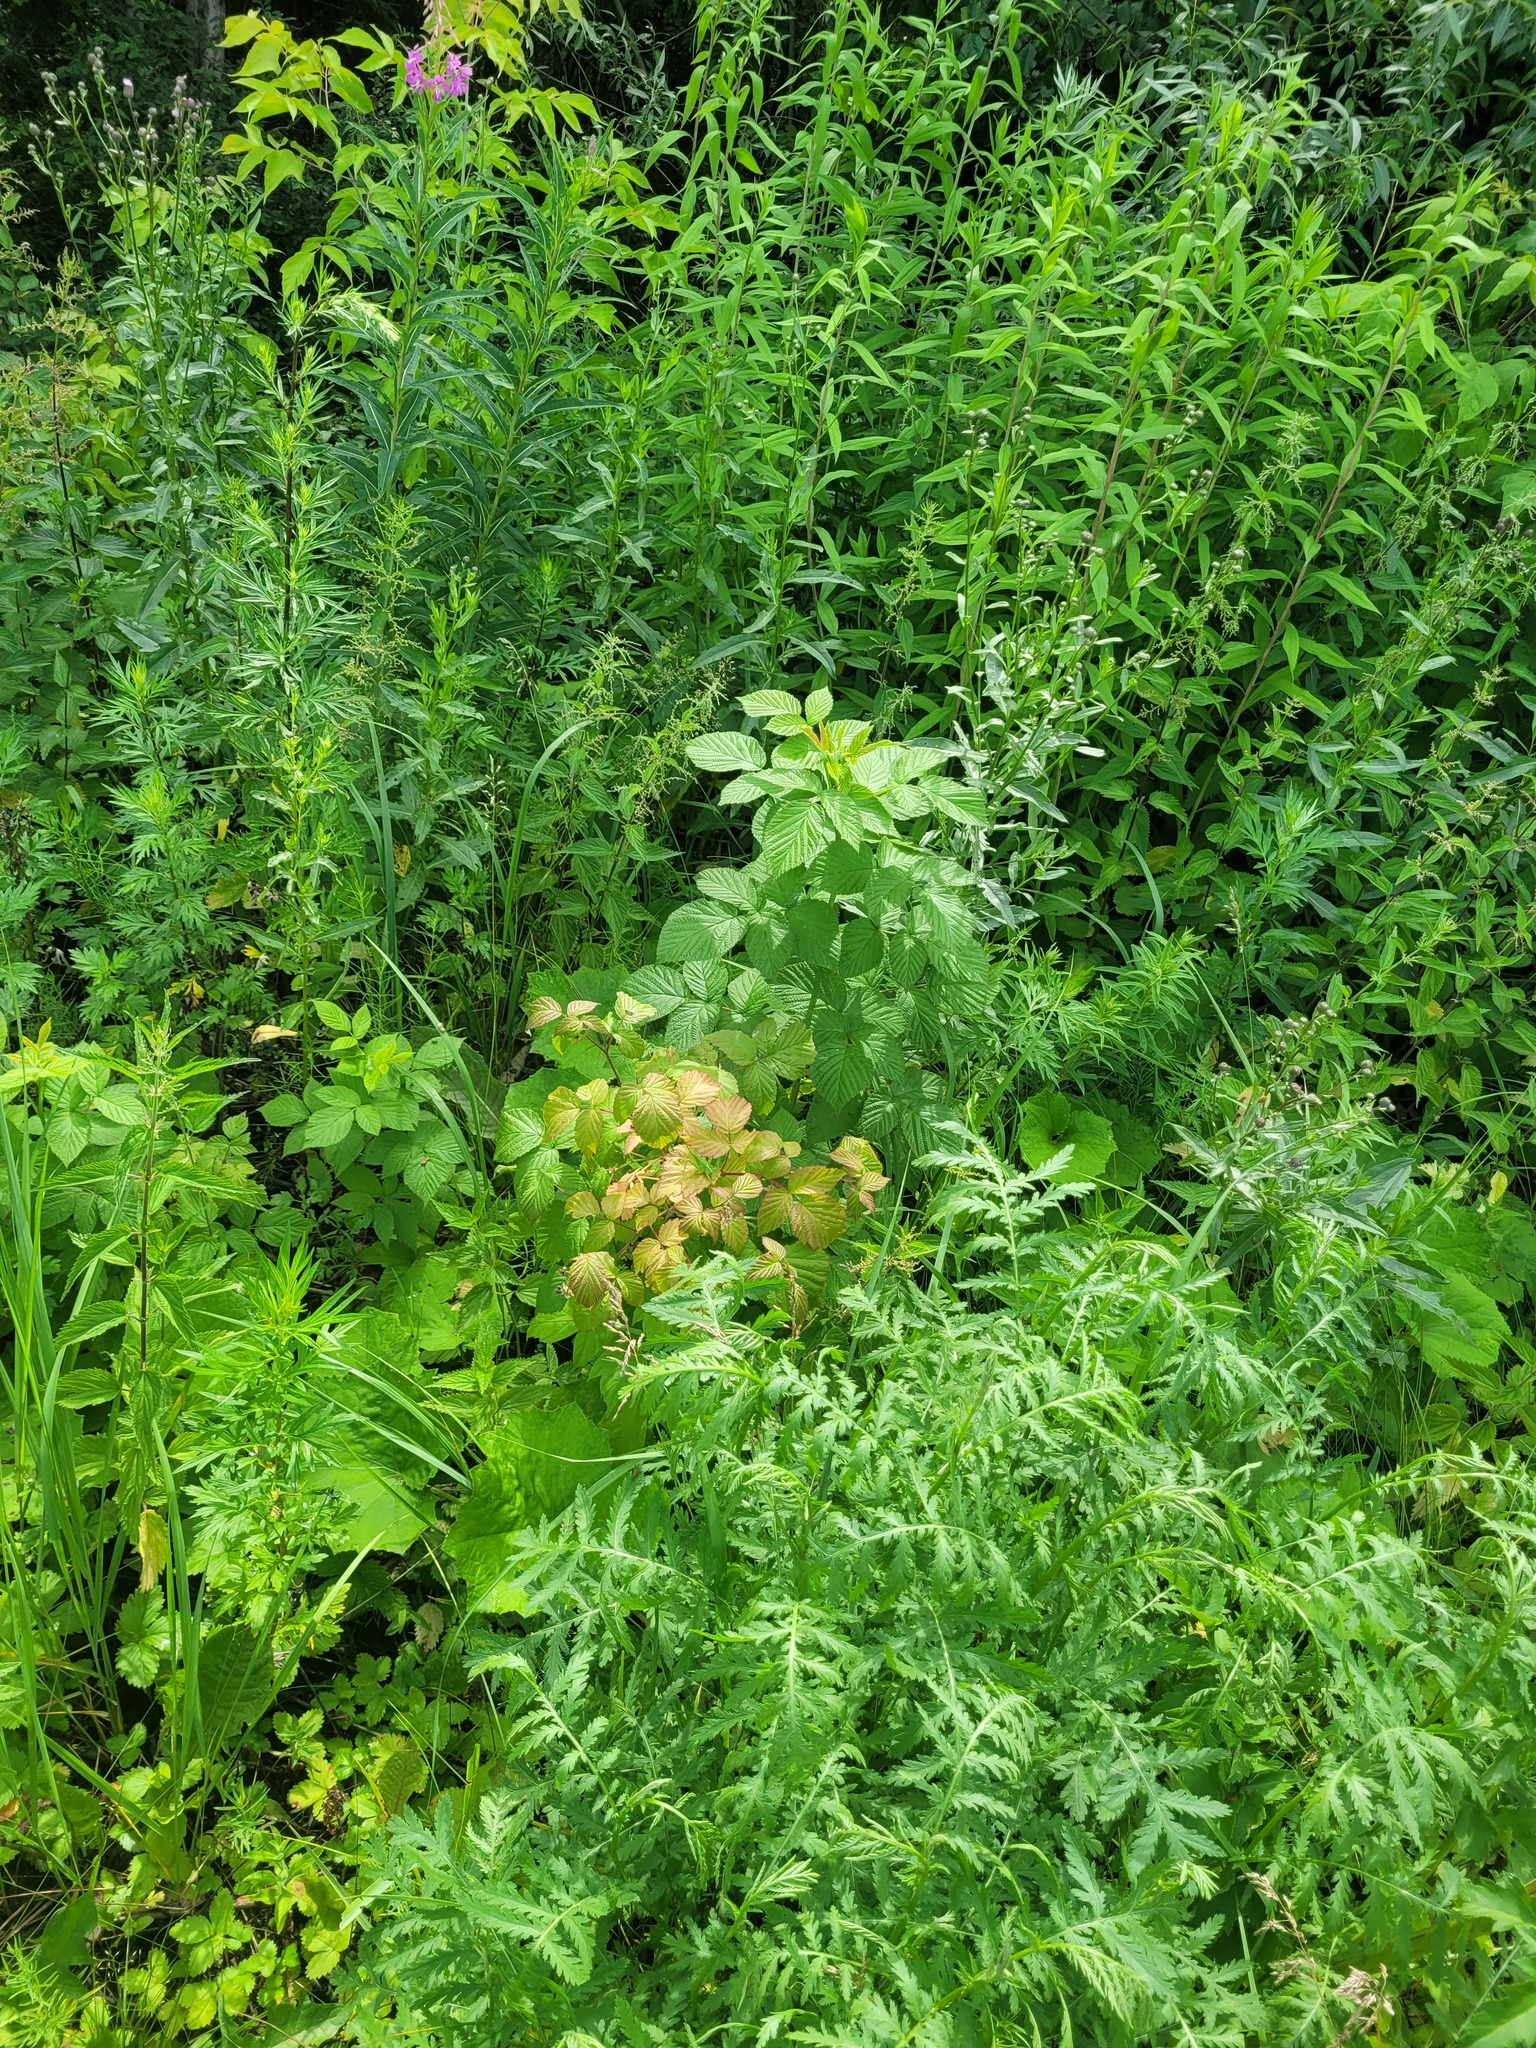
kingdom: Plantae
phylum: Tracheophyta
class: Magnoliopsida
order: Rosales
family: Rosaceae
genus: Rubus
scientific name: Rubus idaeus
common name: Raspberry
